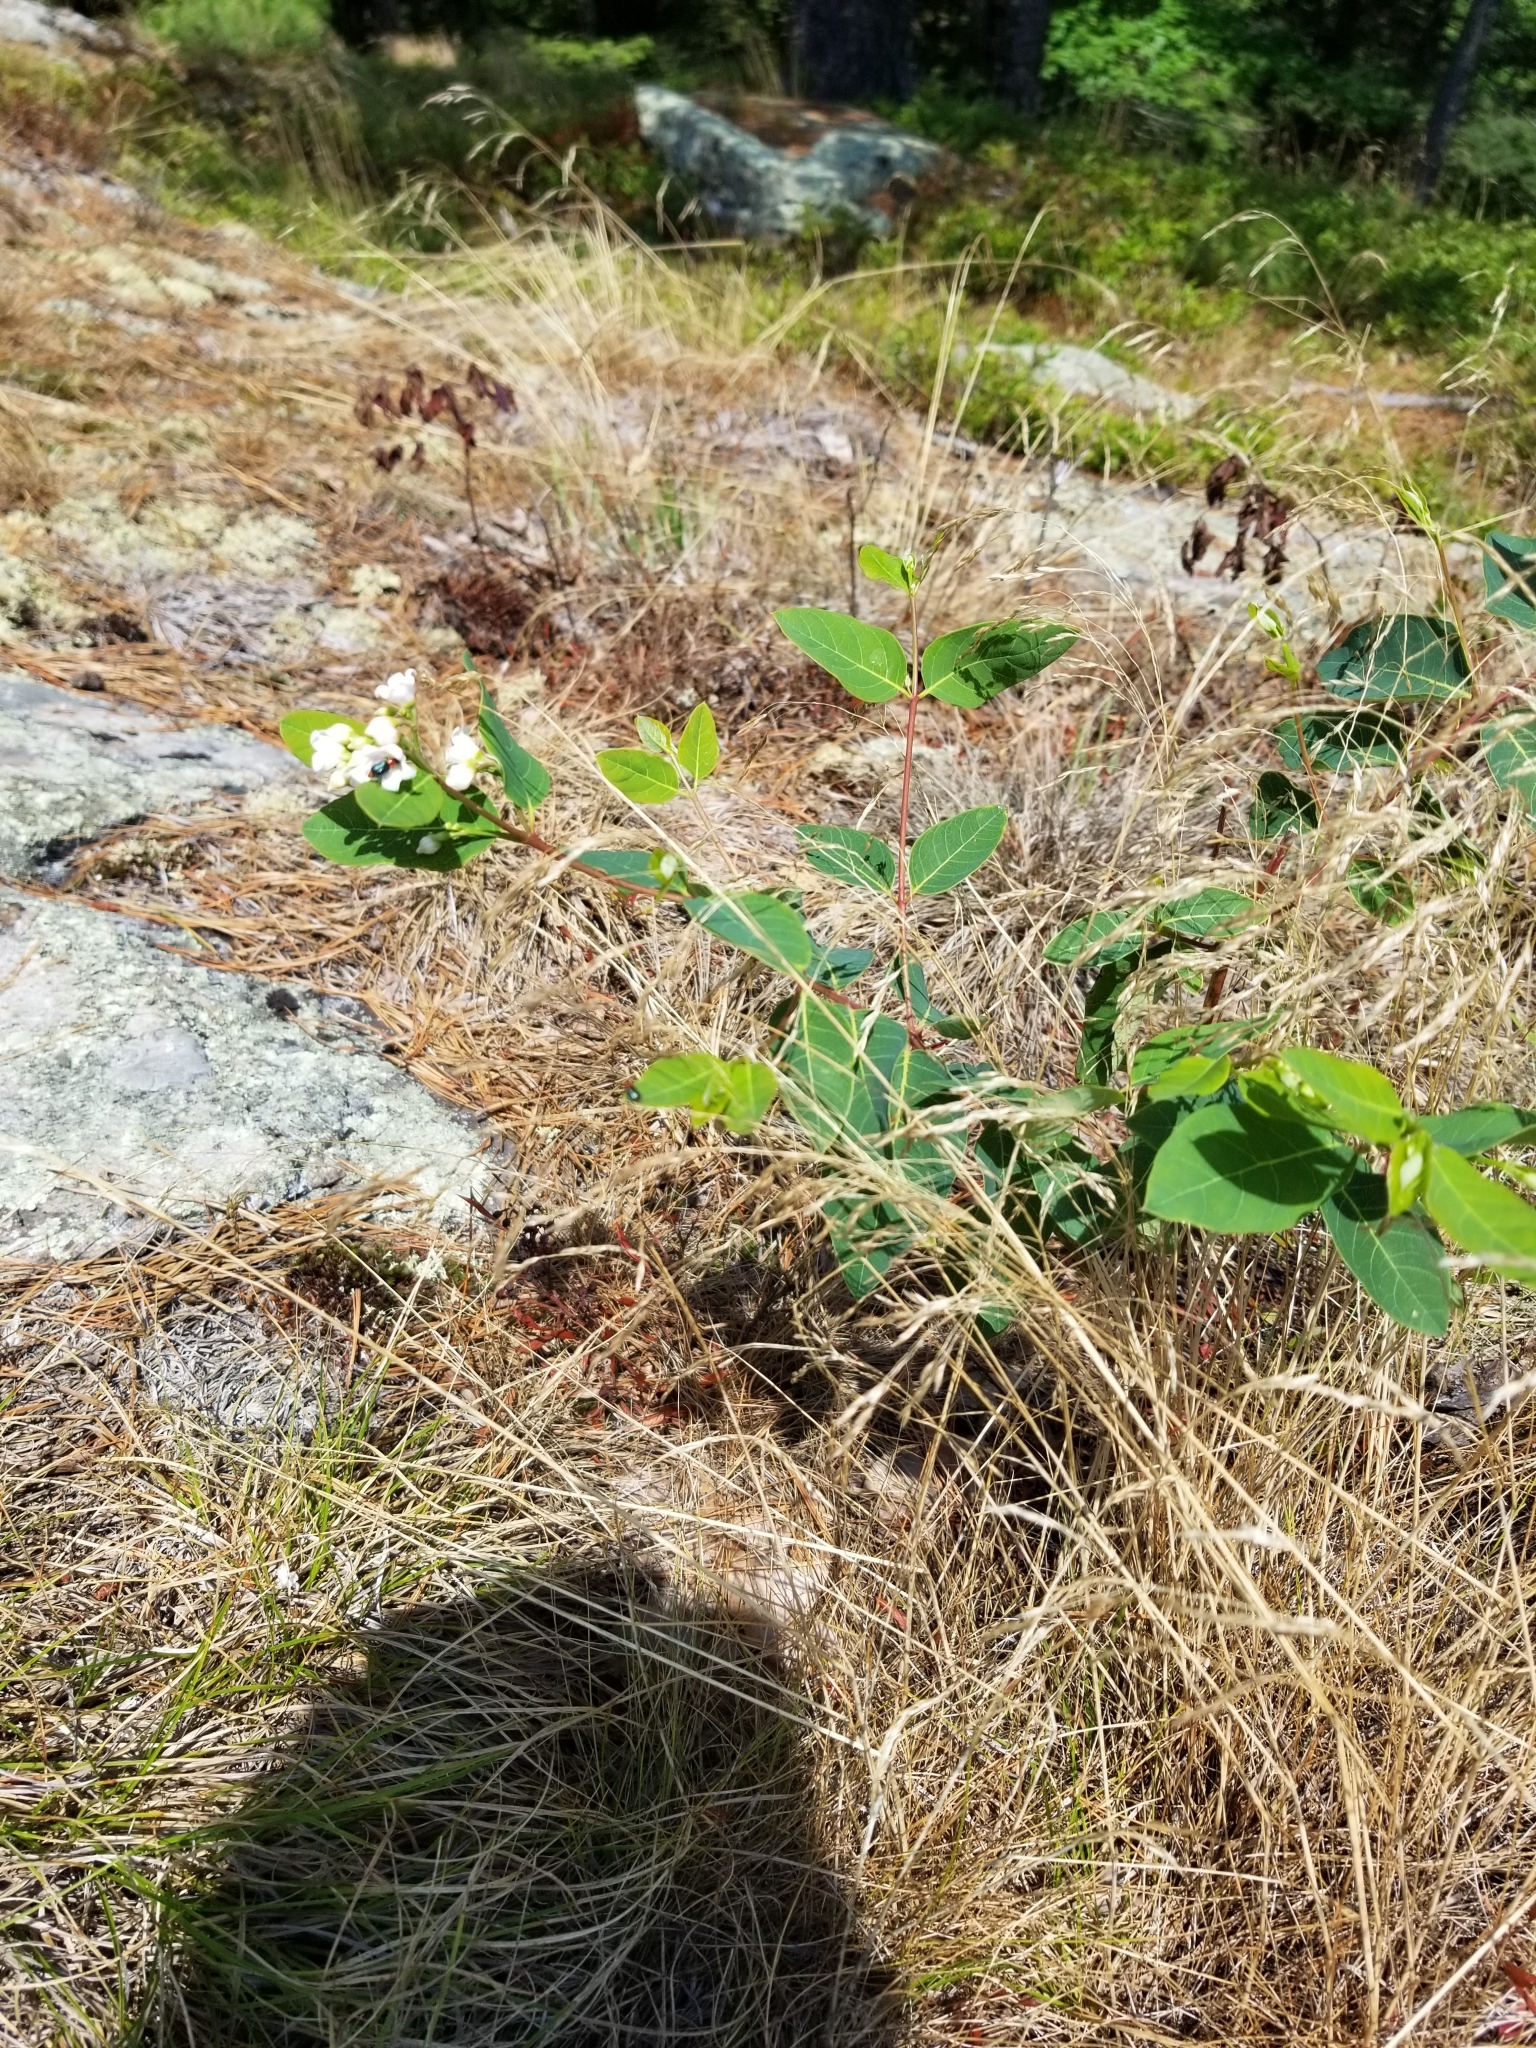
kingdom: Plantae
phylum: Tracheophyta
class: Magnoliopsida
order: Gentianales
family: Apocynaceae
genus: Apocynum
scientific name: Apocynum androsaemifolium
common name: Spreading dogbane
